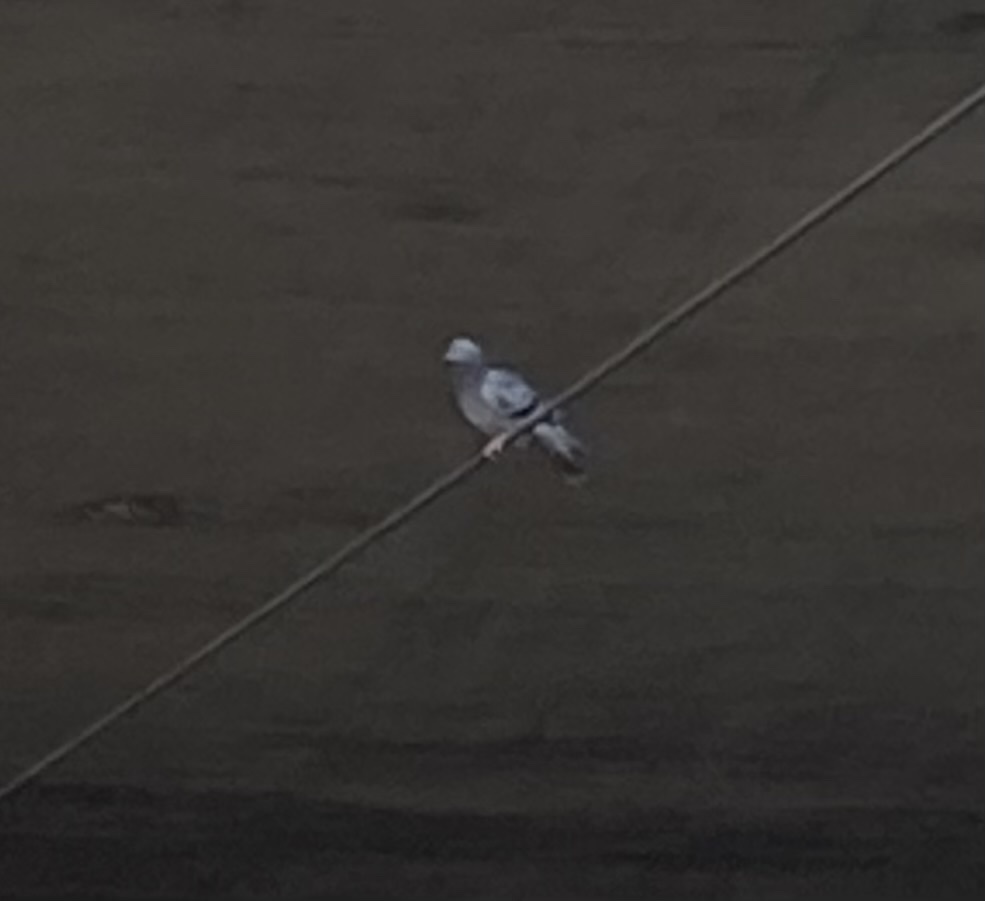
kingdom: Animalia
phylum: Chordata
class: Aves
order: Columbiformes
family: Columbidae
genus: Columba
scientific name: Columba livia
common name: Rock pigeon
